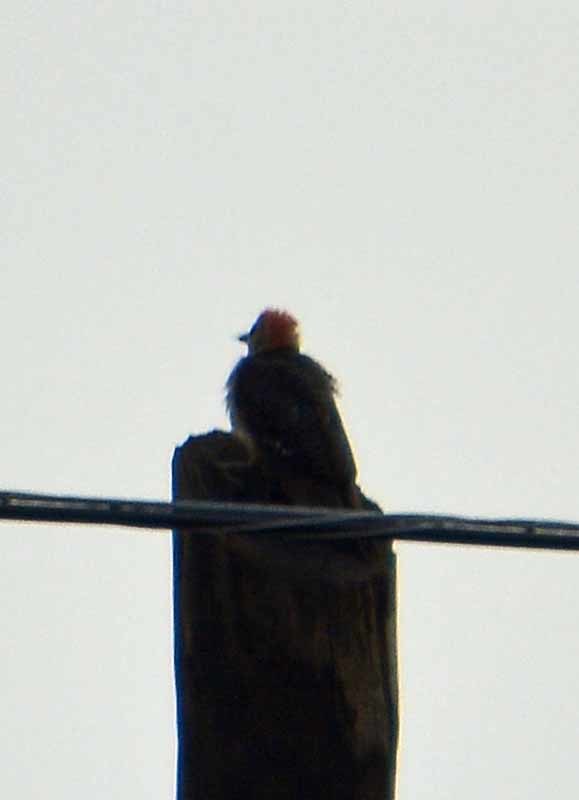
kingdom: Animalia
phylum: Chordata
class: Aves
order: Piciformes
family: Picidae
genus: Melanerpes
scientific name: Melanerpes aurifrons
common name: Golden-fronted woodpecker
